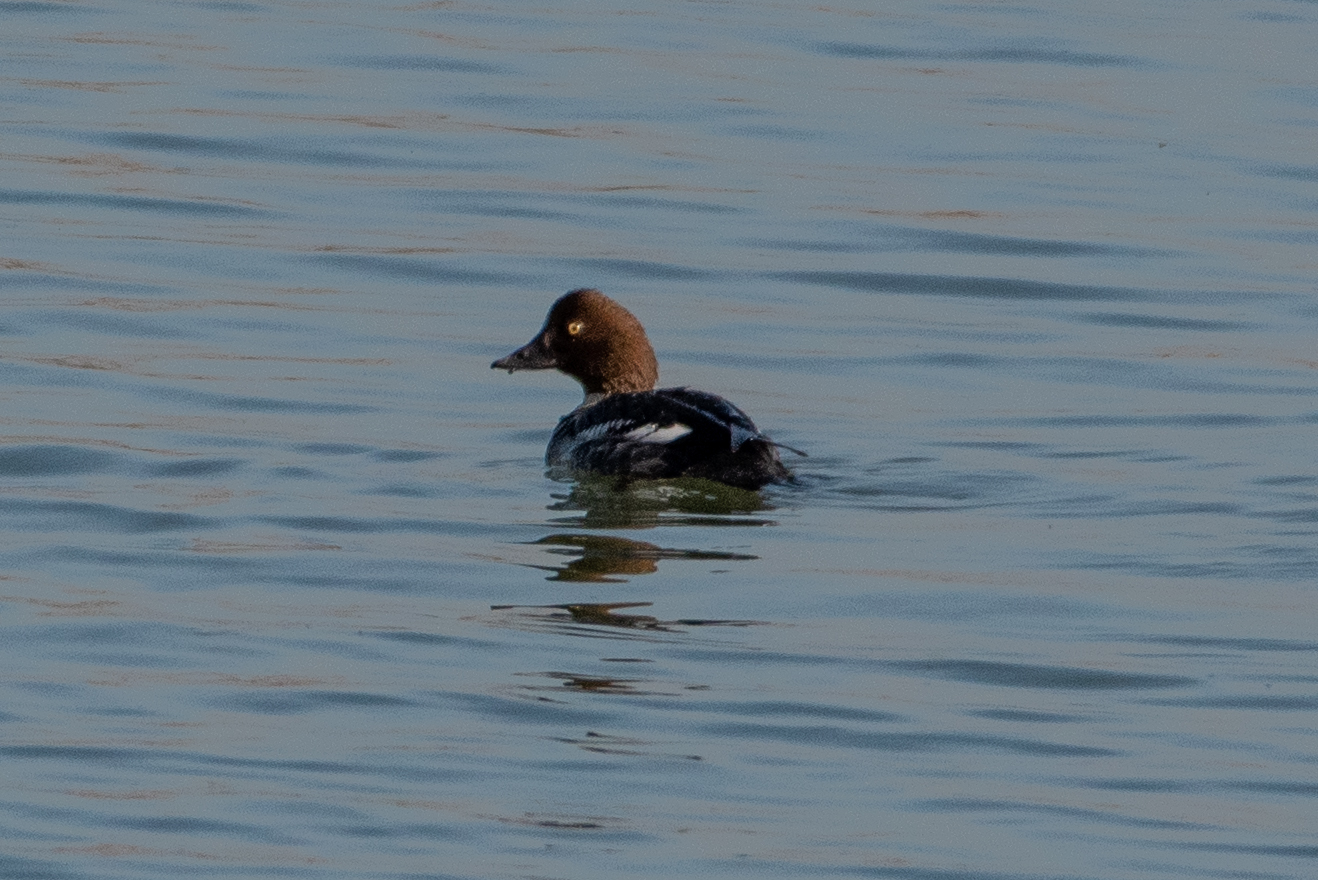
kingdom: Animalia
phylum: Chordata
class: Aves
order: Anseriformes
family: Anatidae
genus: Bucephala
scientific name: Bucephala clangula
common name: Common goldeneye
